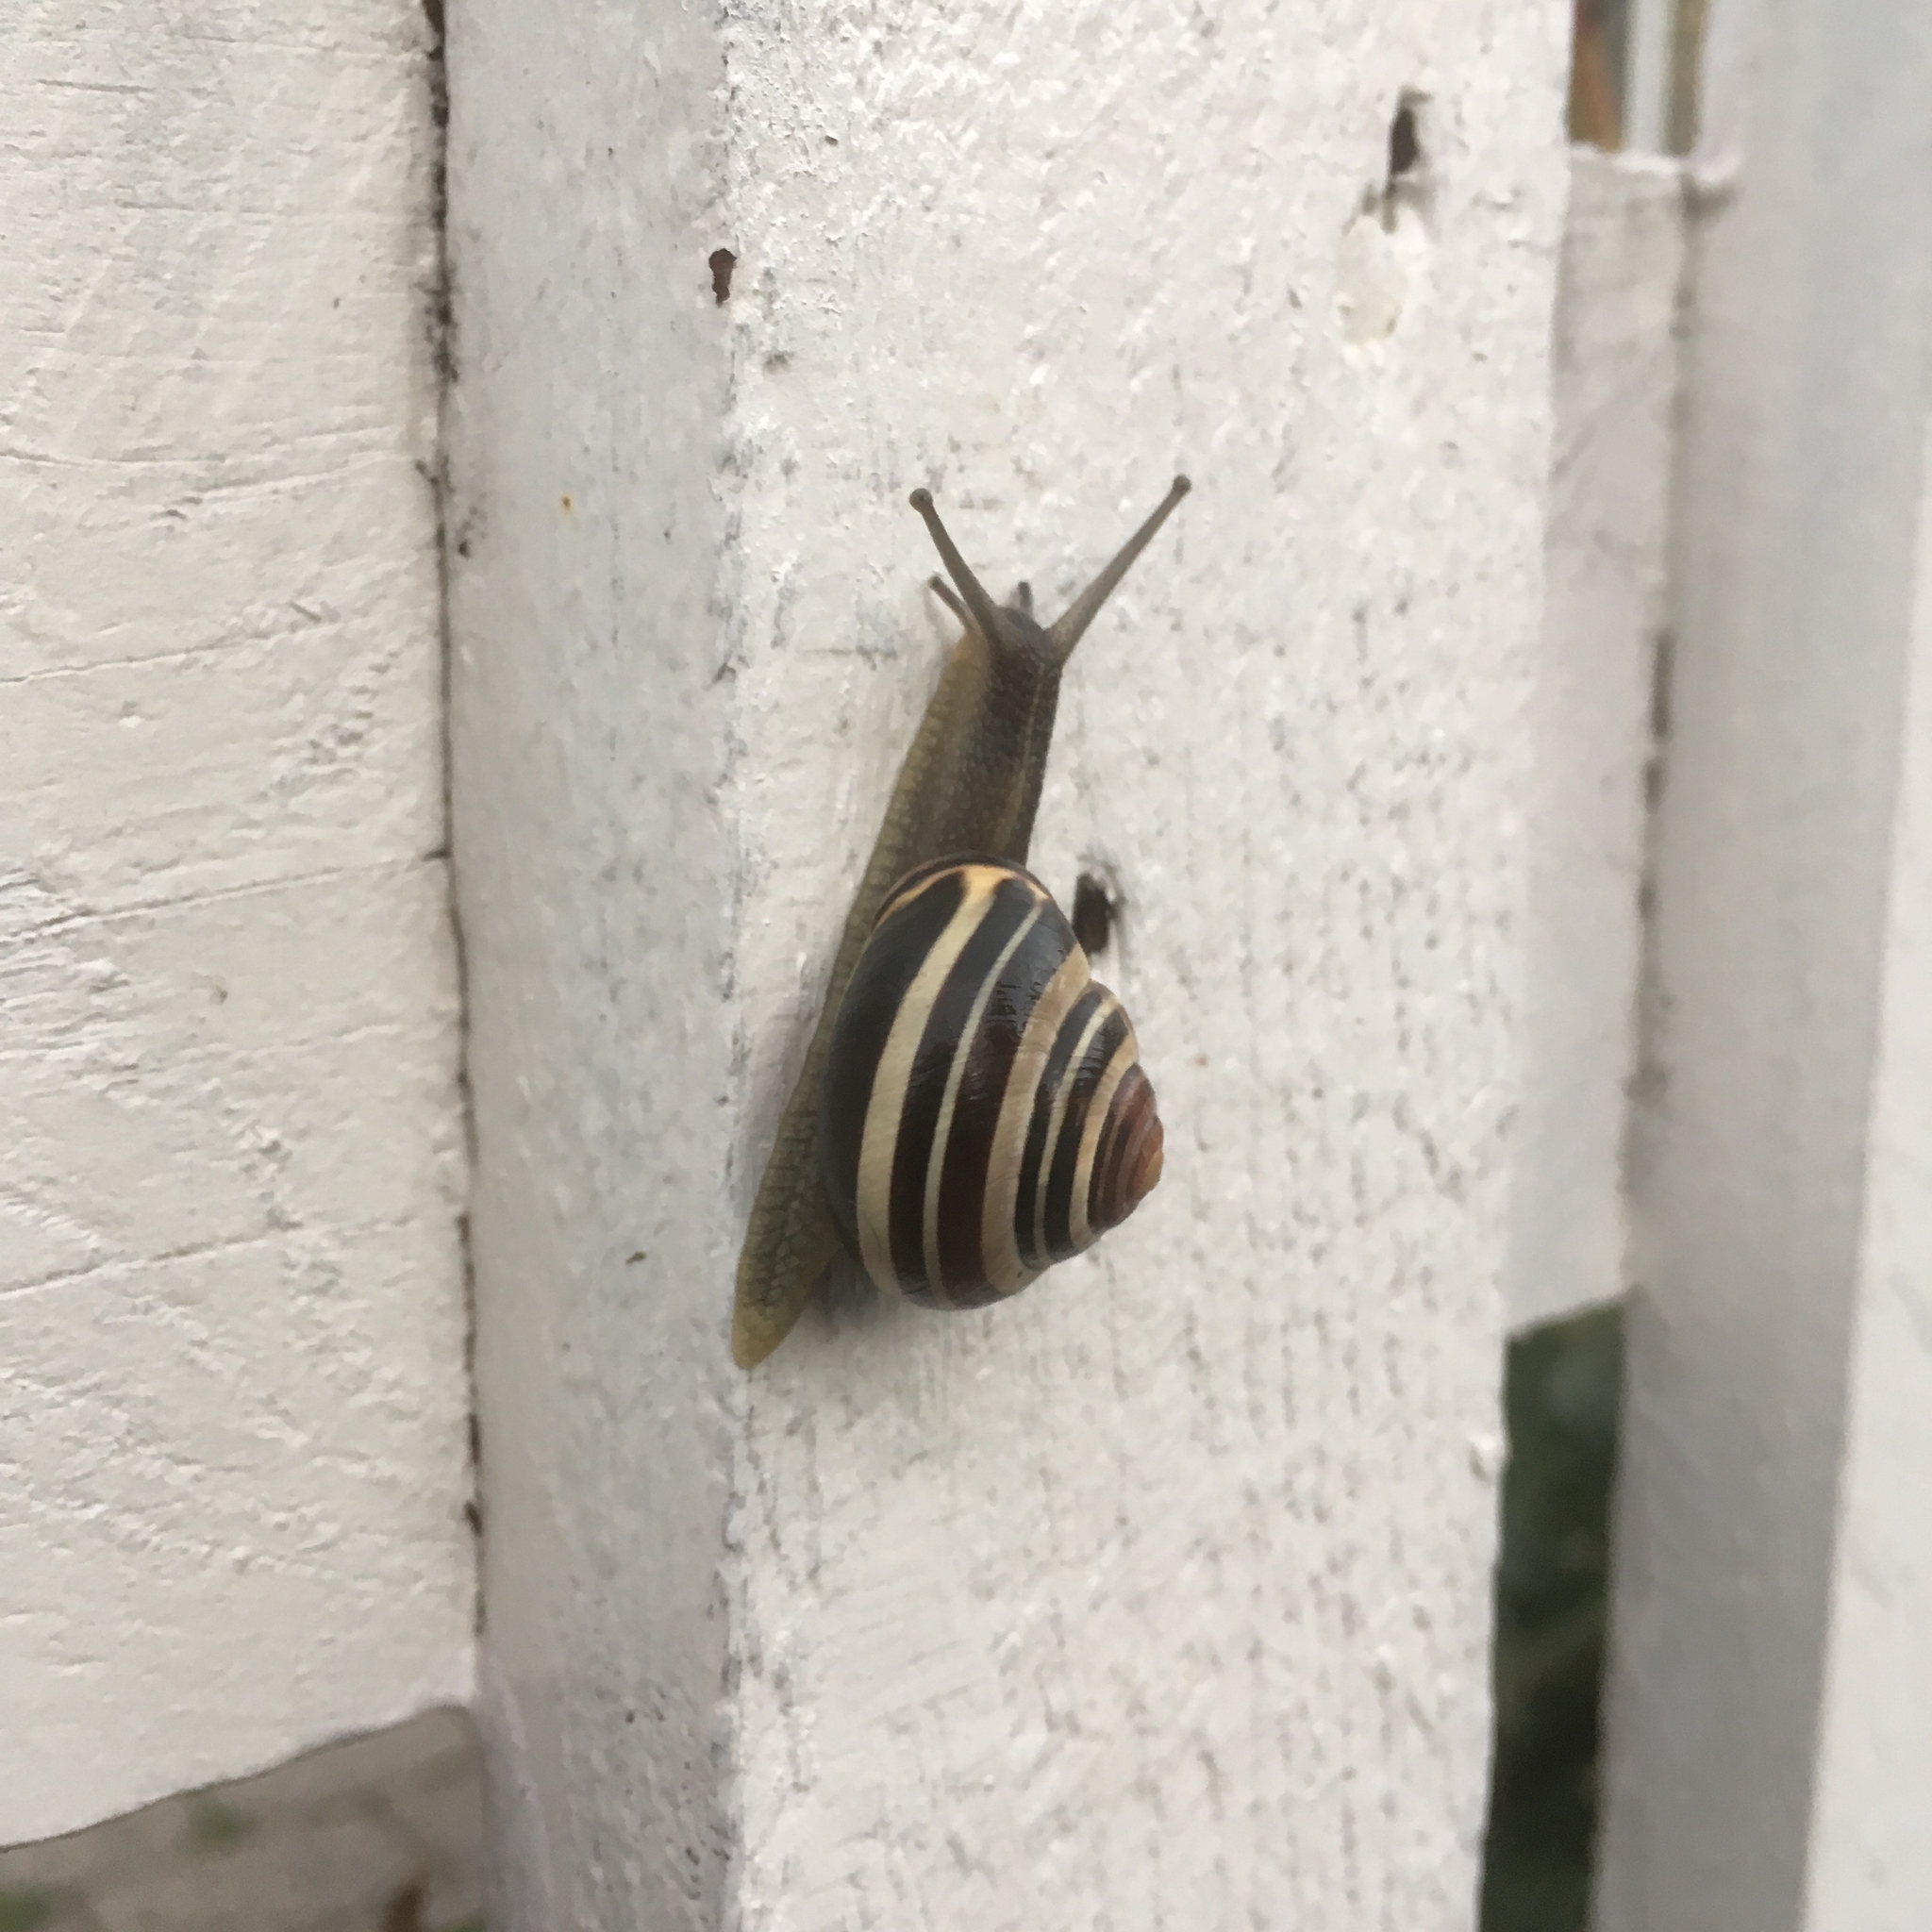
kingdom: Animalia
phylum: Mollusca
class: Gastropoda
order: Stylommatophora
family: Helicidae
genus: Cepaea
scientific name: Cepaea nemoralis
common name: Grovesnail
